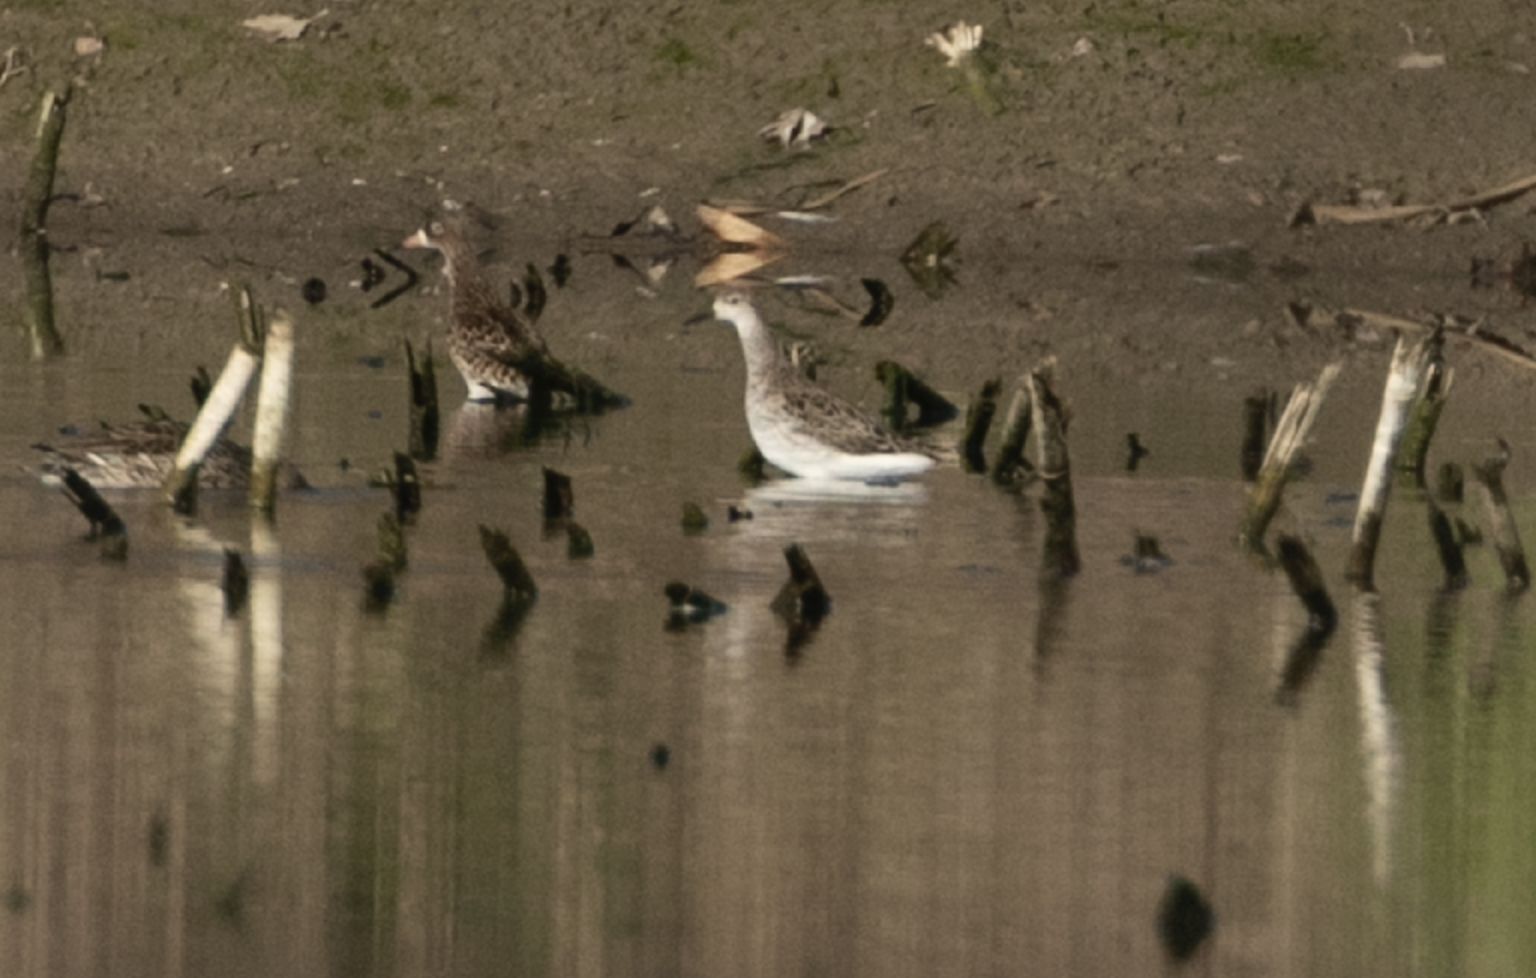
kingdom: Animalia
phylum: Chordata
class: Aves
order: Charadriiformes
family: Scolopacidae
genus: Calidris
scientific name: Calidris pugnax
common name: Ruff
